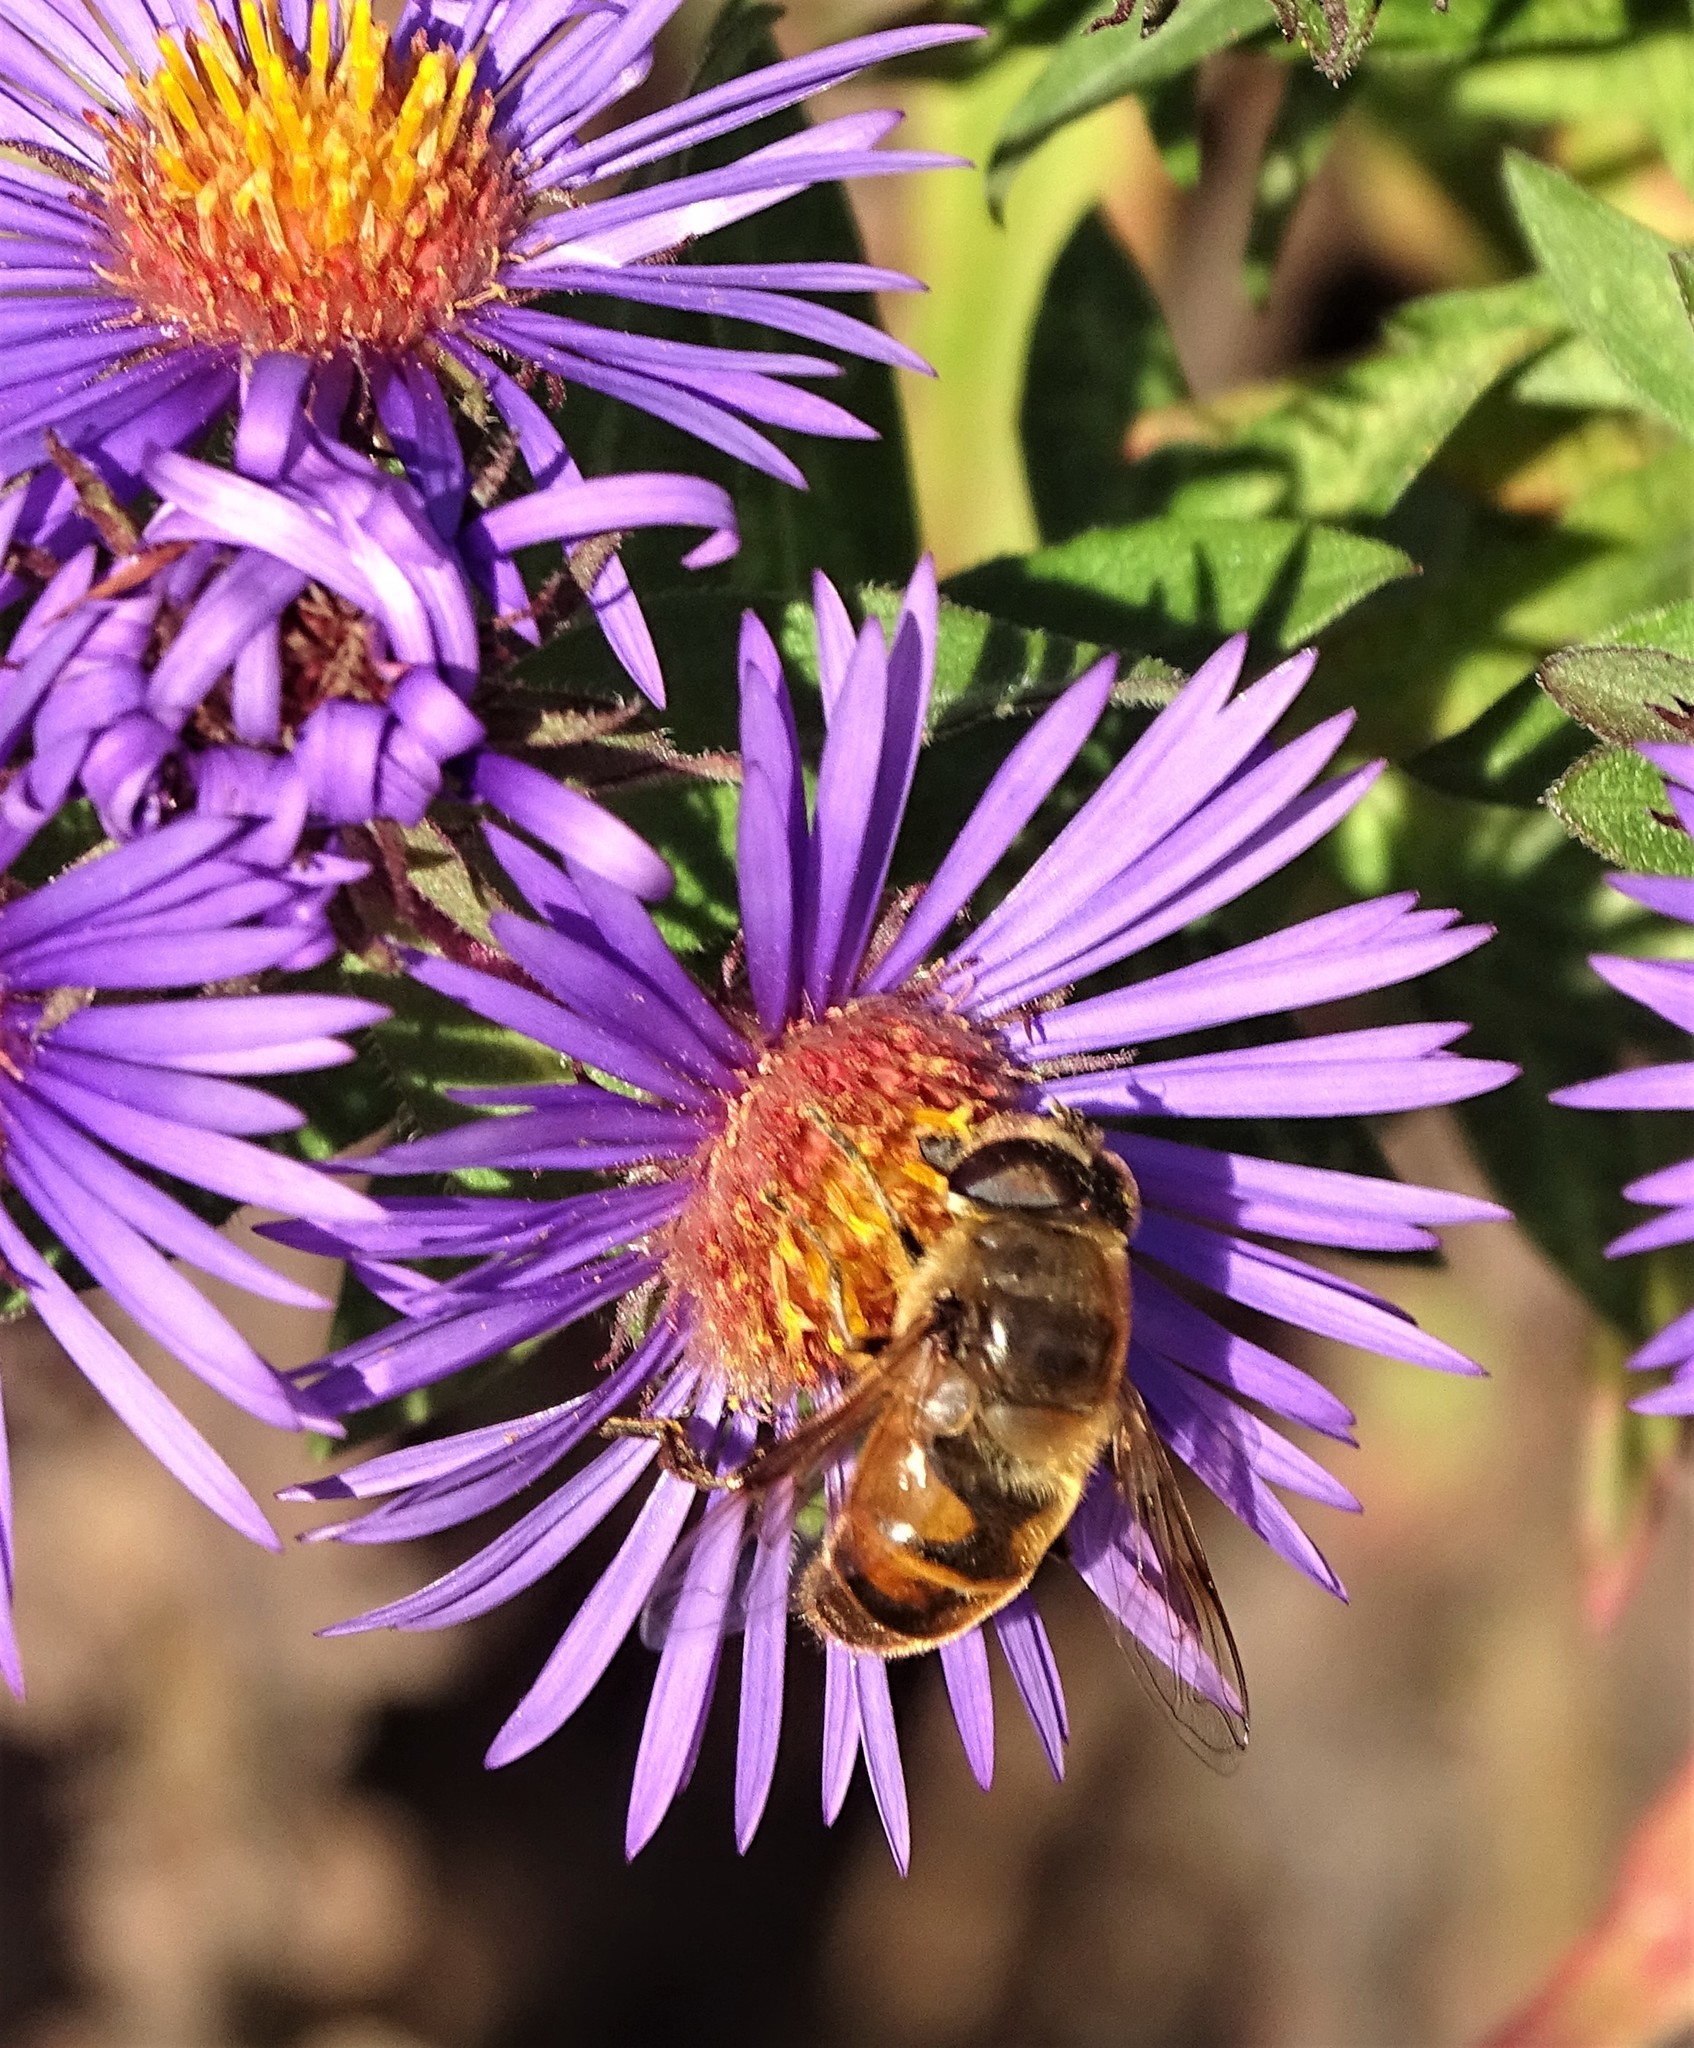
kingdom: Animalia
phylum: Arthropoda
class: Insecta
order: Diptera
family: Syrphidae
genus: Eristalis
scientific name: Eristalis tenax
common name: Drone fly
